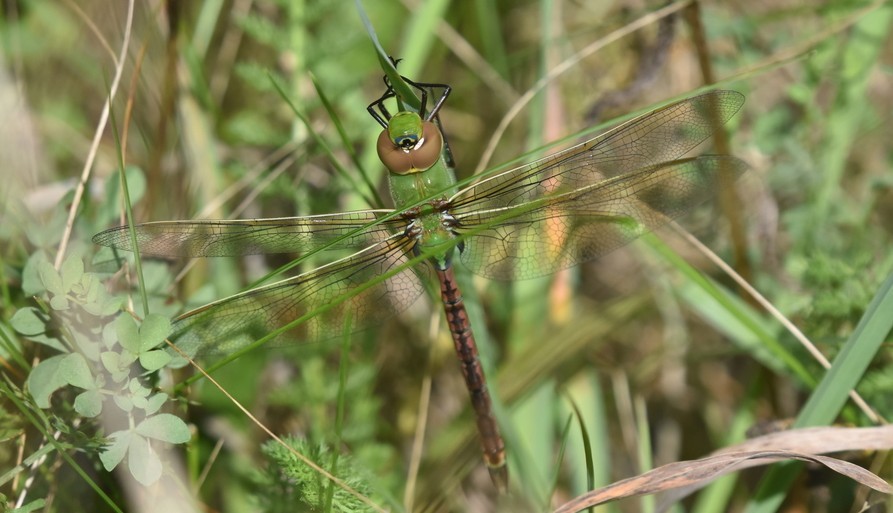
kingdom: Animalia
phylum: Arthropoda
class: Insecta
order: Odonata
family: Aeshnidae
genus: Anax
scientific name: Anax junius
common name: Common green darner
